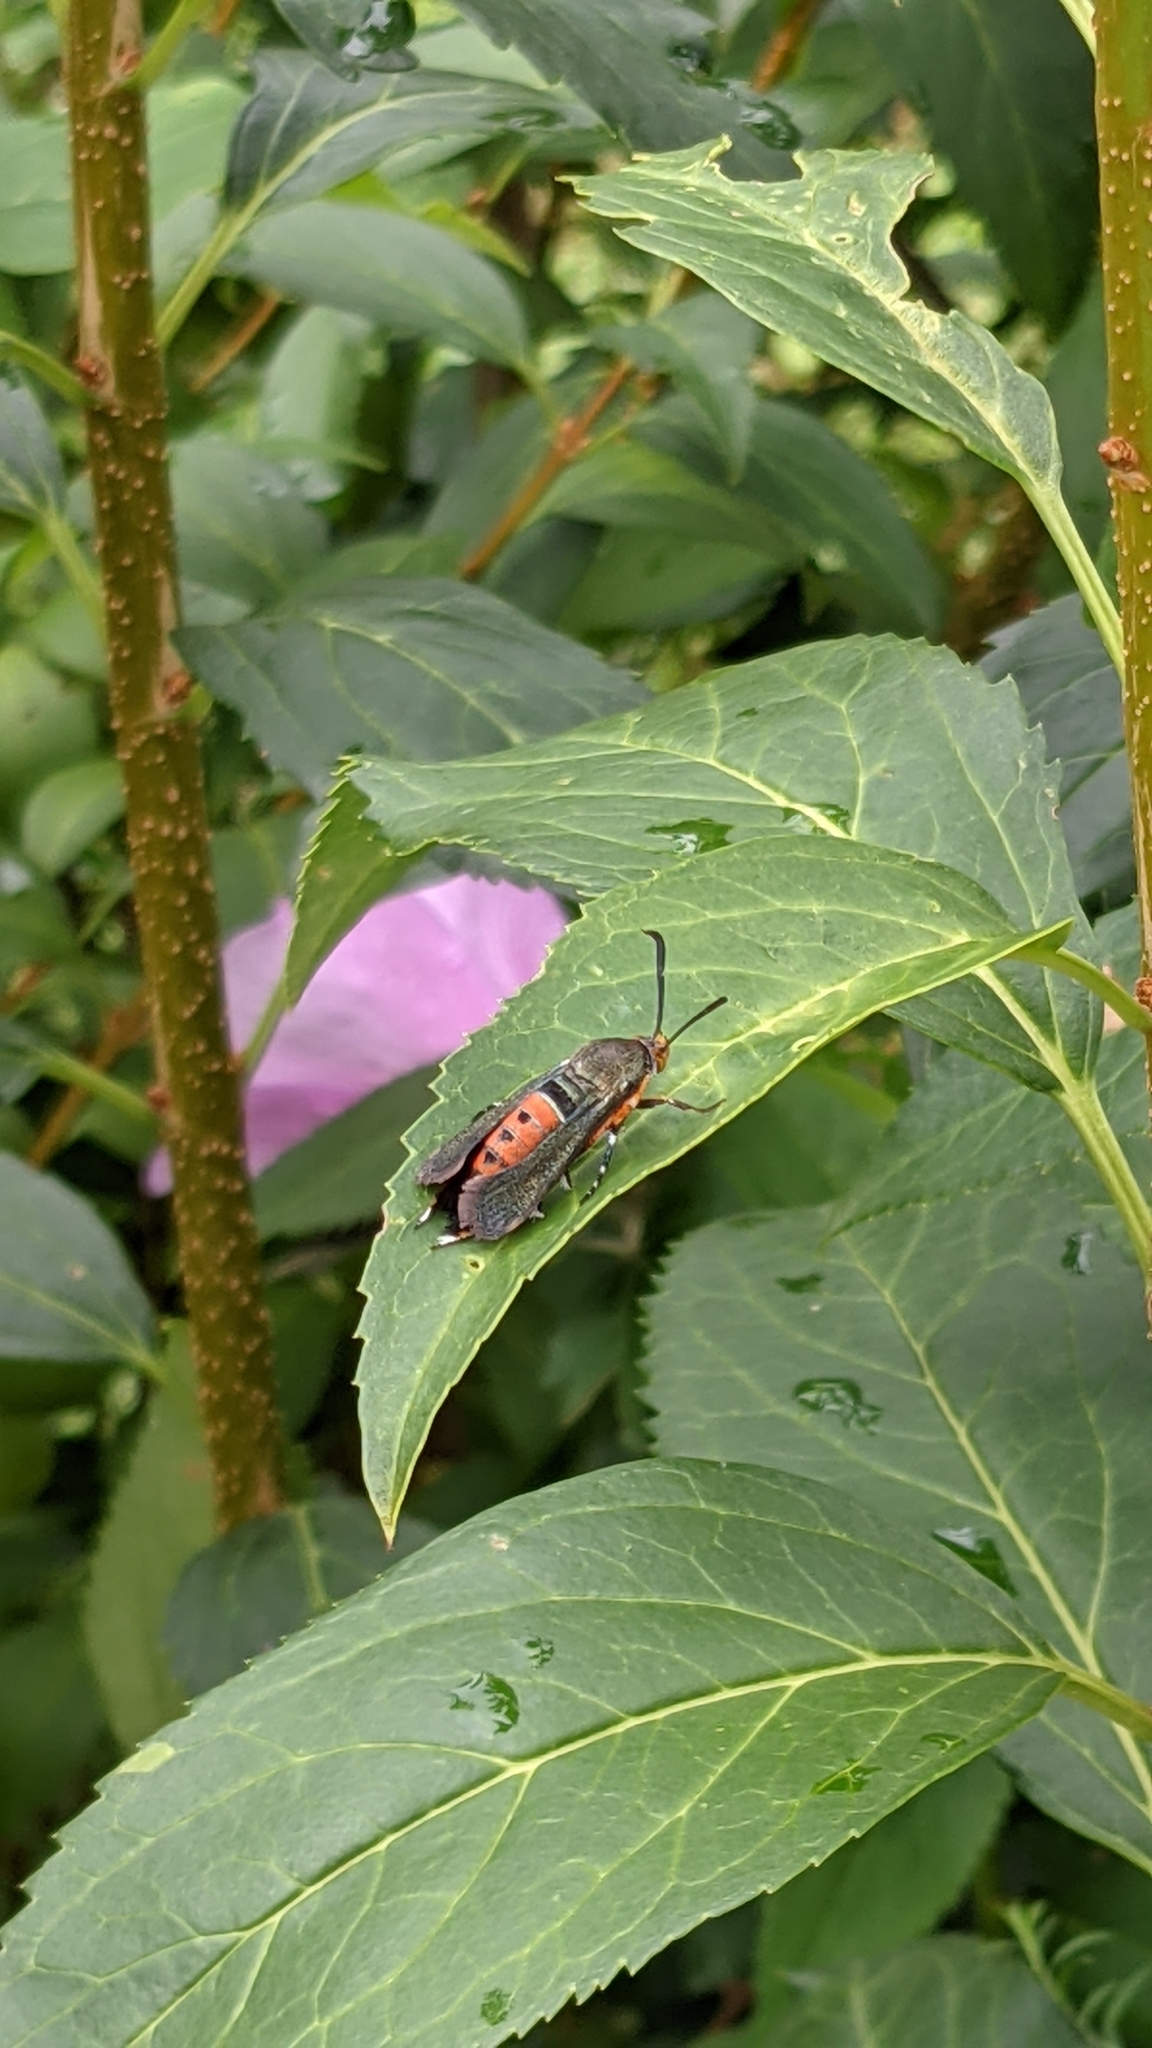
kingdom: Animalia
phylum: Arthropoda
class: Insecta
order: Lepidoptera
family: Sesiidae
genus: Eichlinia
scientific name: Eichlinia cucurbitae
